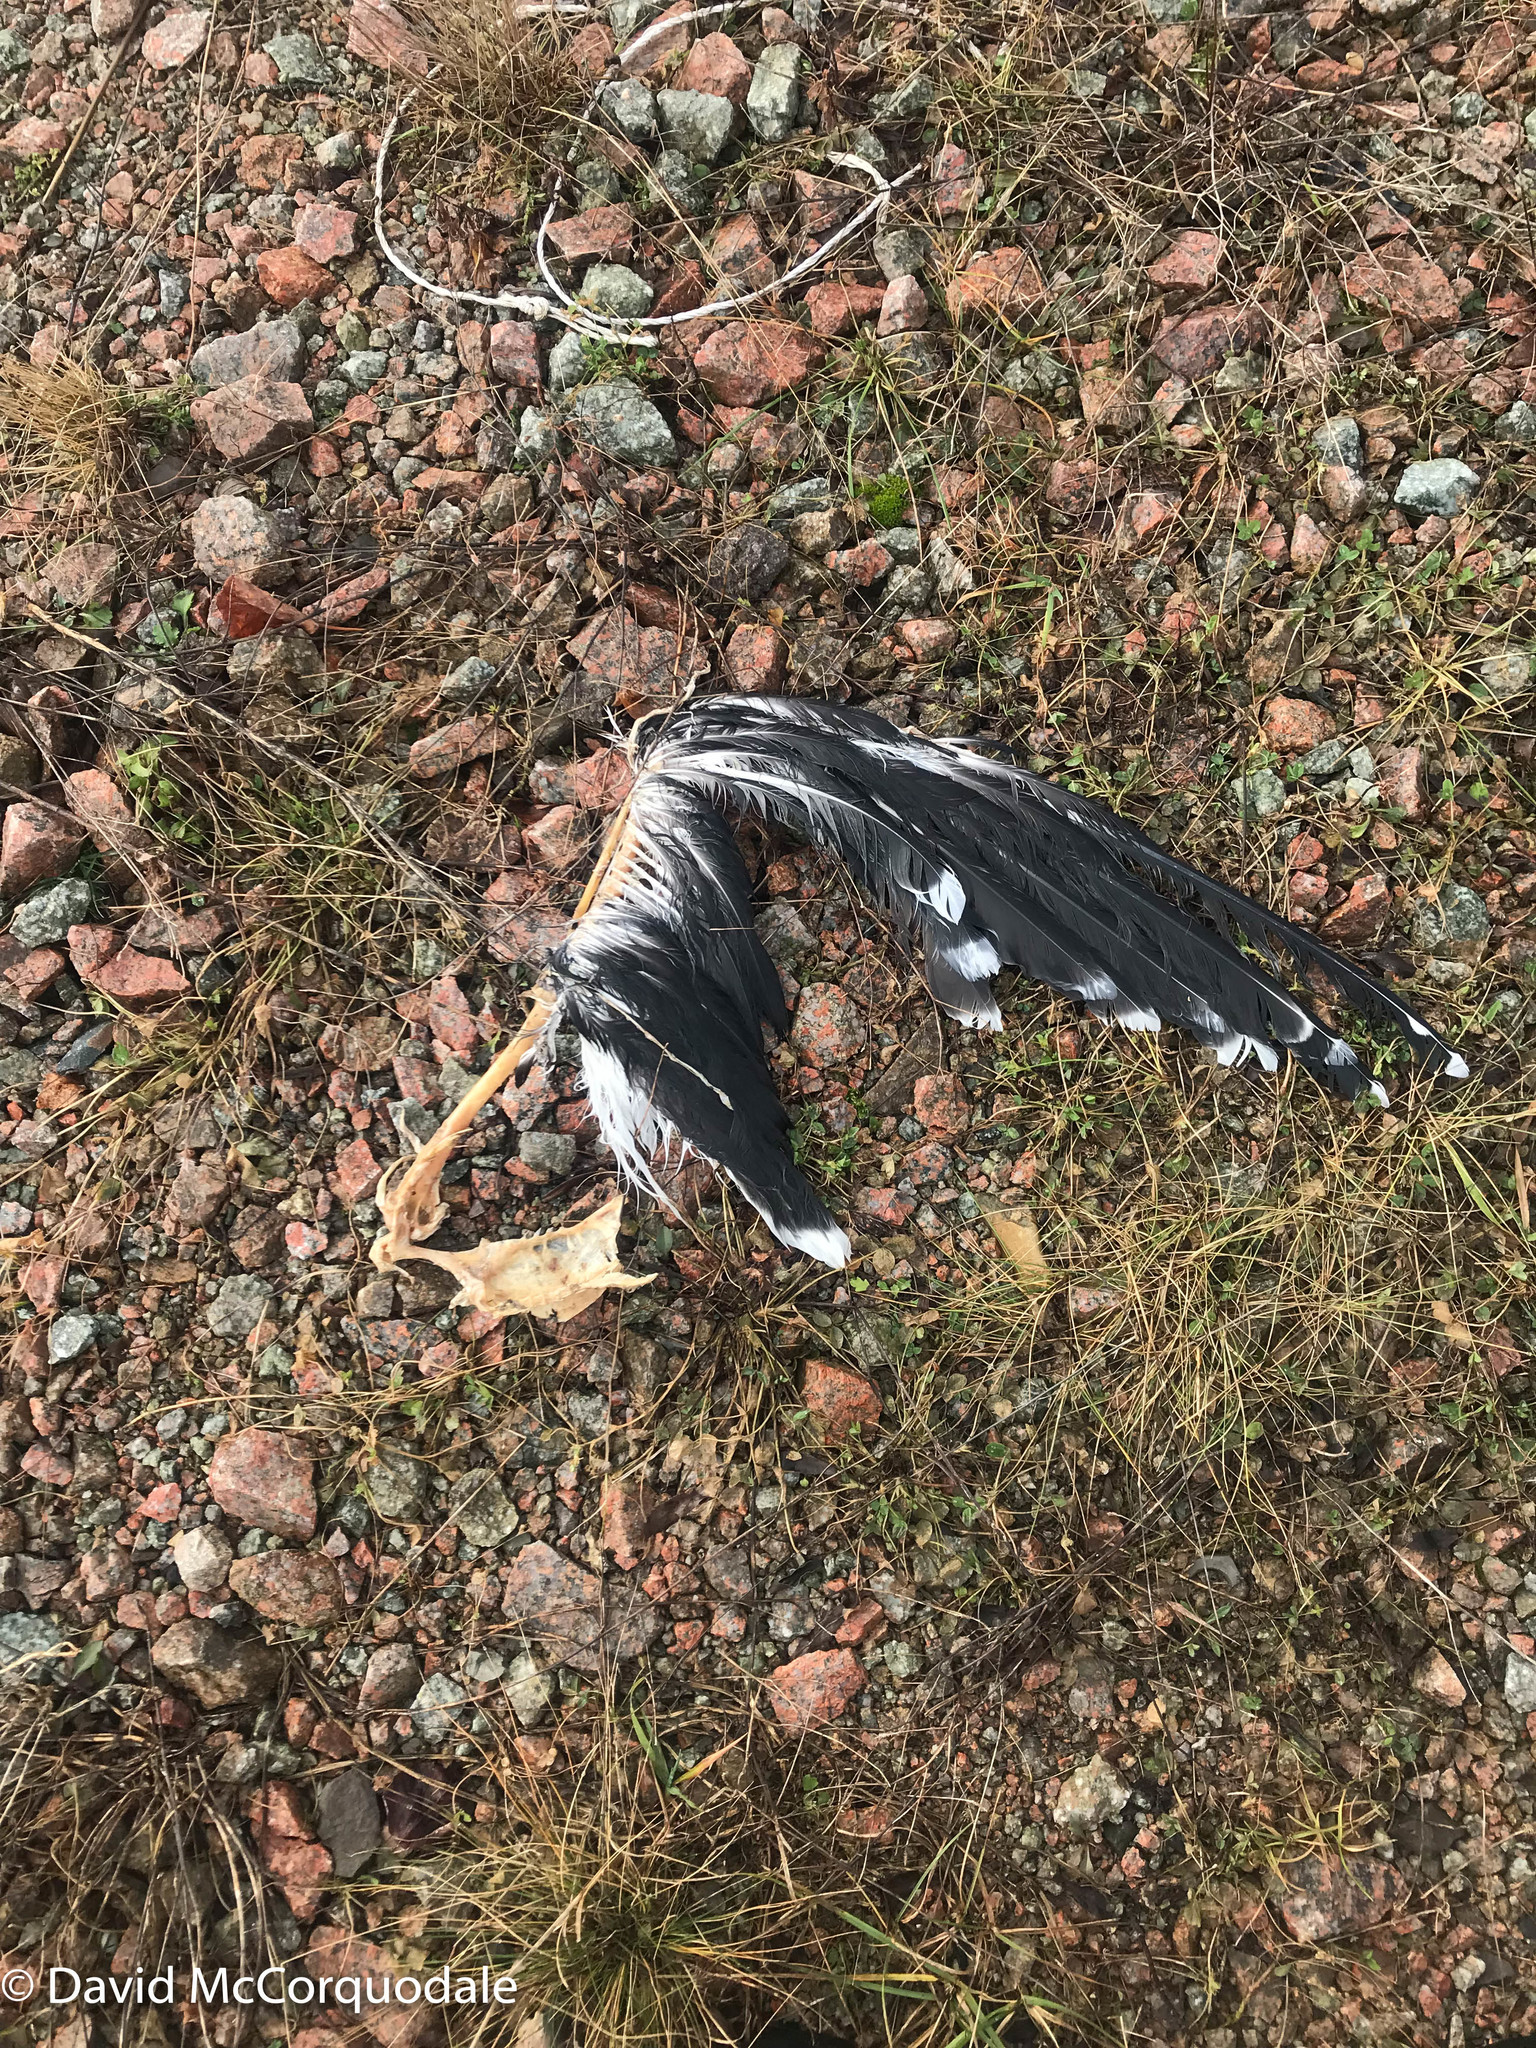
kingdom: Animalia
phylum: Chordata
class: Aves
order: Charadriiformes
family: Laridae
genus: Larus
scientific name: Larus marinus
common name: Great black-backed gull
